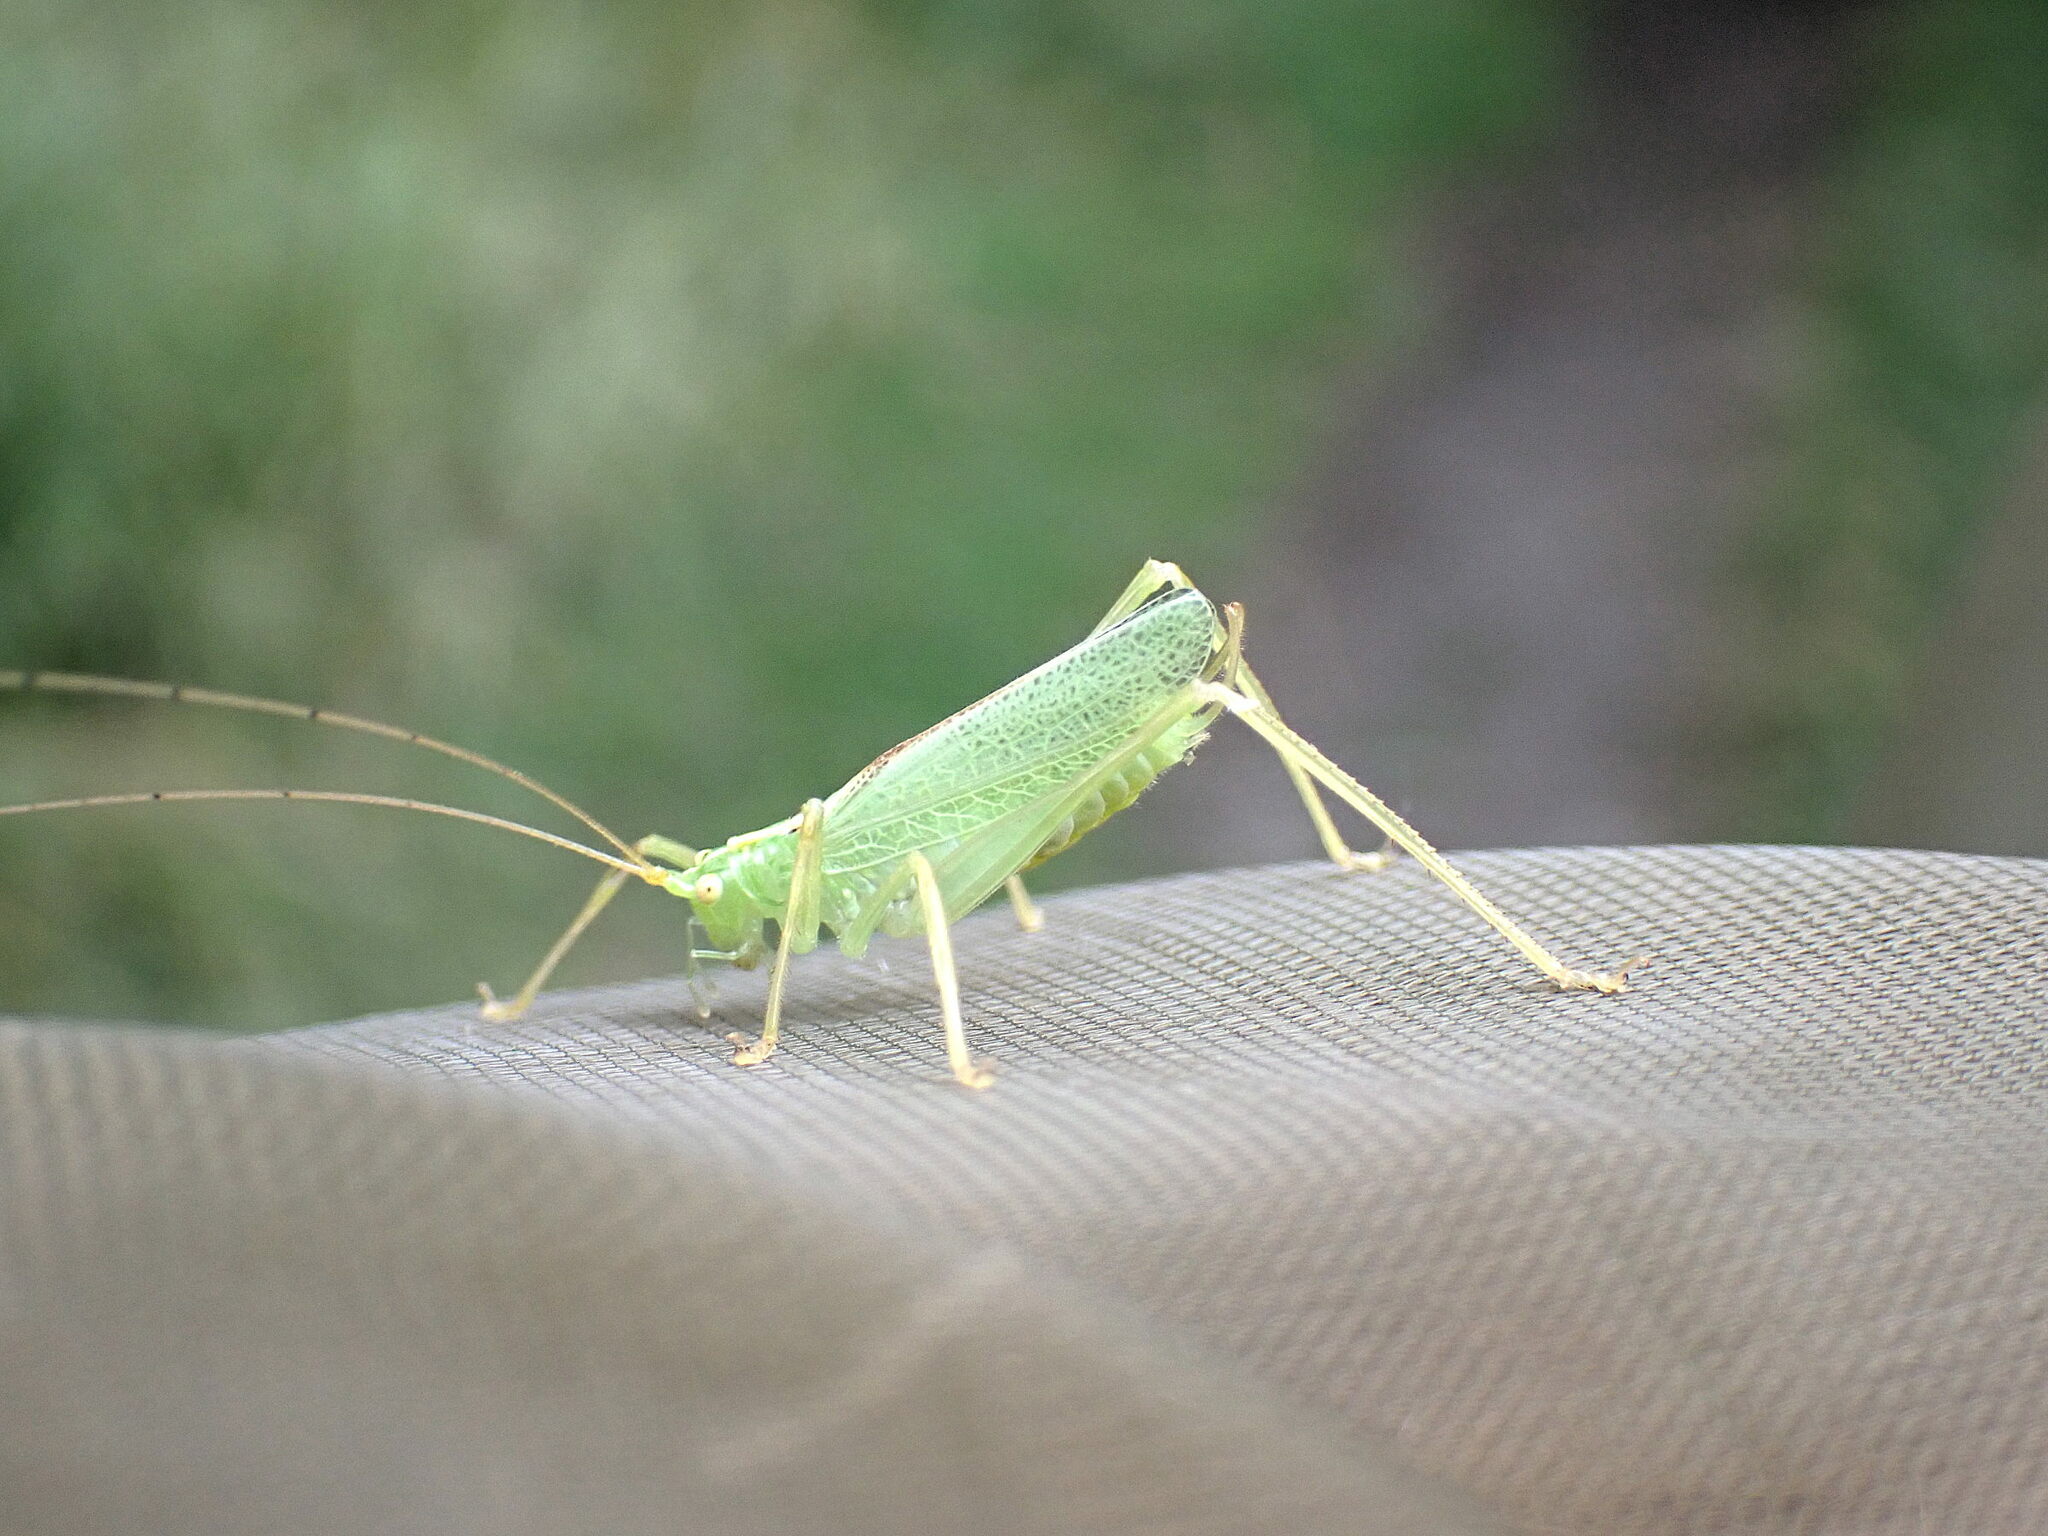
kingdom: Animalia
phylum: Arthropoda
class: Insecta
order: Orthoptera
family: Tettigoniidae
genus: Meconema
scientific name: Meconema thalassinum
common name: Oak bush-cricket
